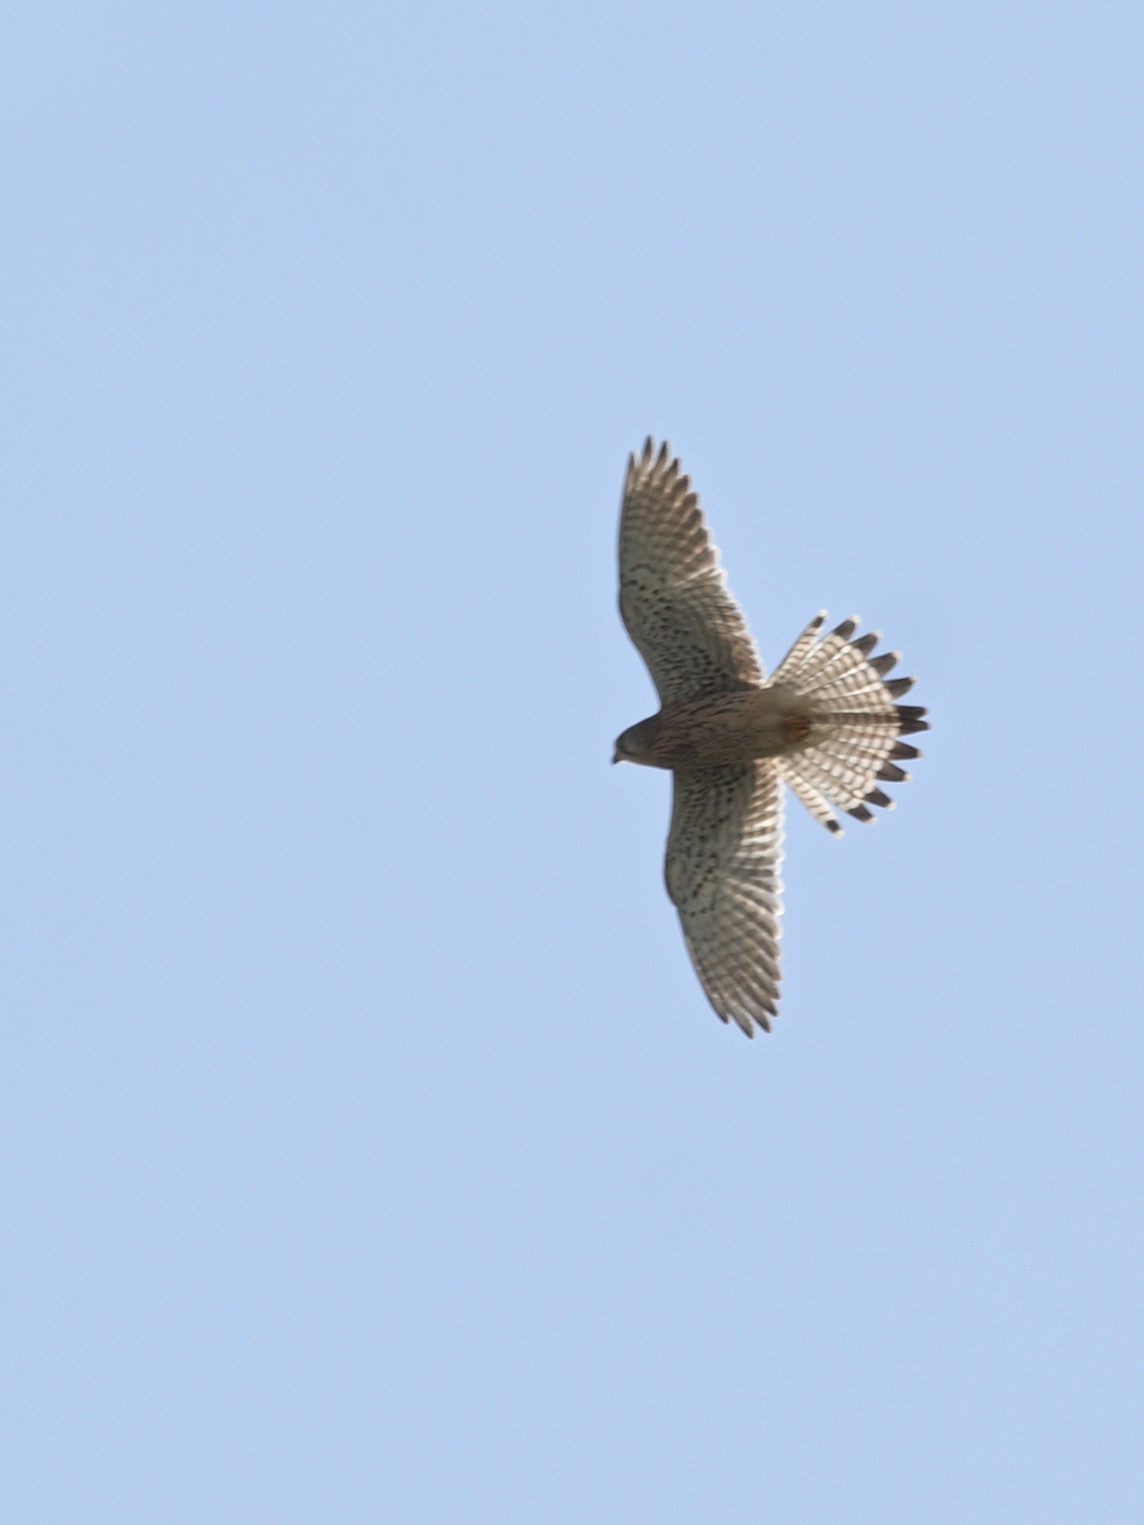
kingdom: Animalia
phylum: Chordata
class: Aves
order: Falconiformes
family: Falconidae
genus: Falco
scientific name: Falco tinnunculus
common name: Common kestrel
